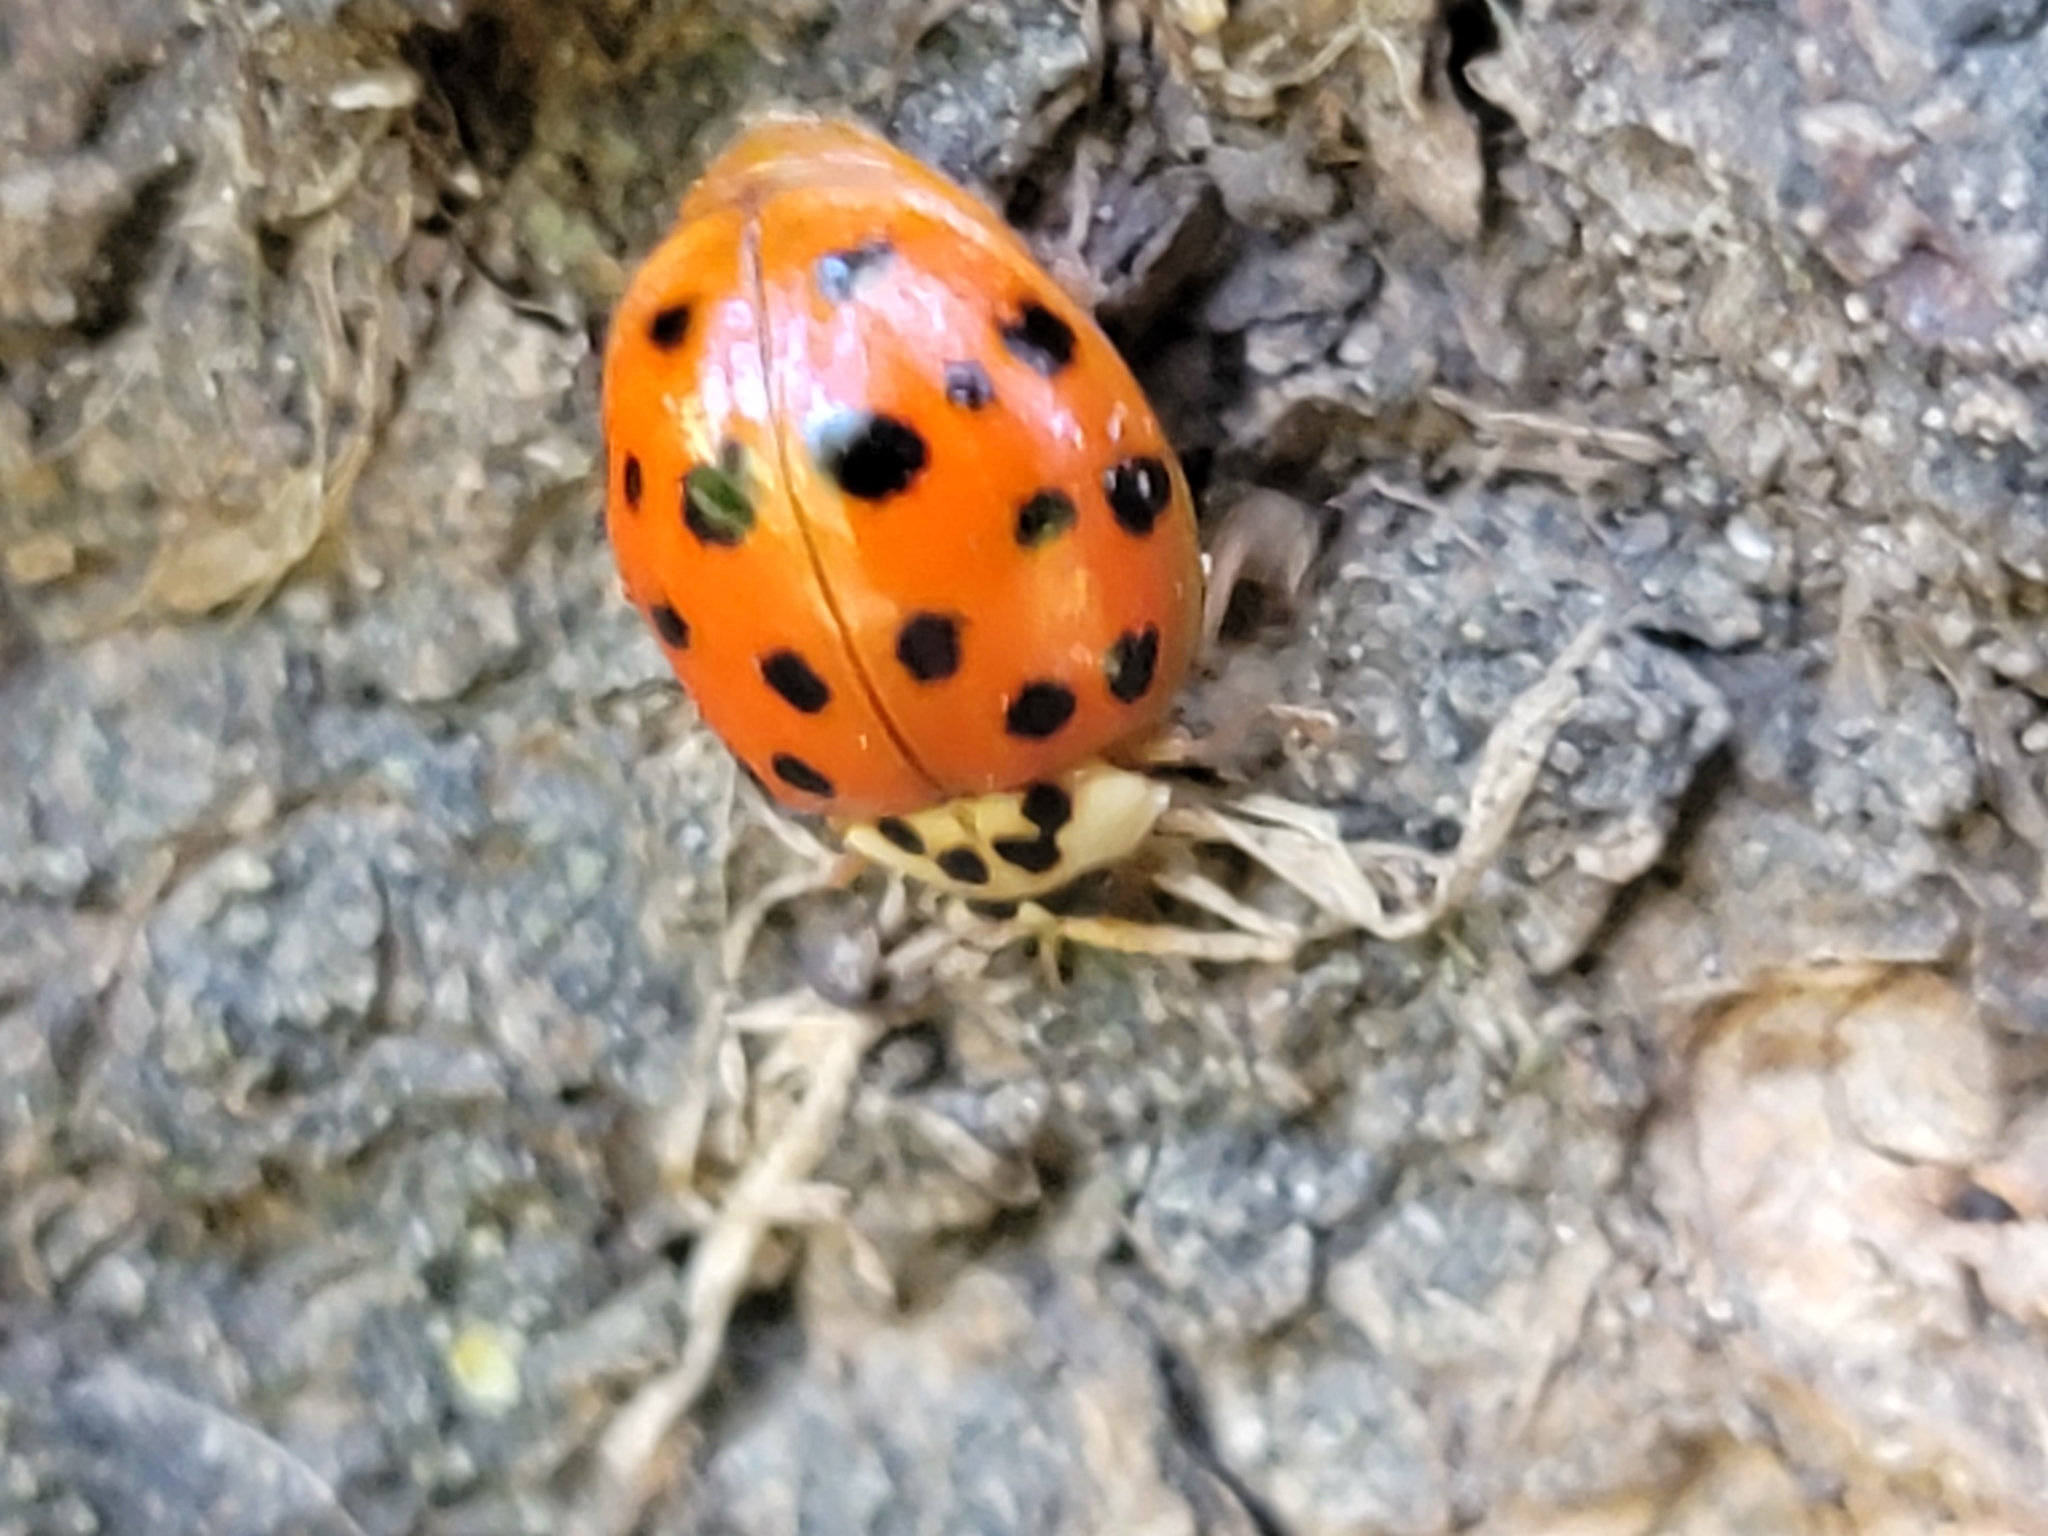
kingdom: Animalia
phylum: Arthropoda
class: Insecta
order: Coleoptera
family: Coccinellidae
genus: Harmonia
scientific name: Harmonia axyridis
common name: Harlequin ladybird
